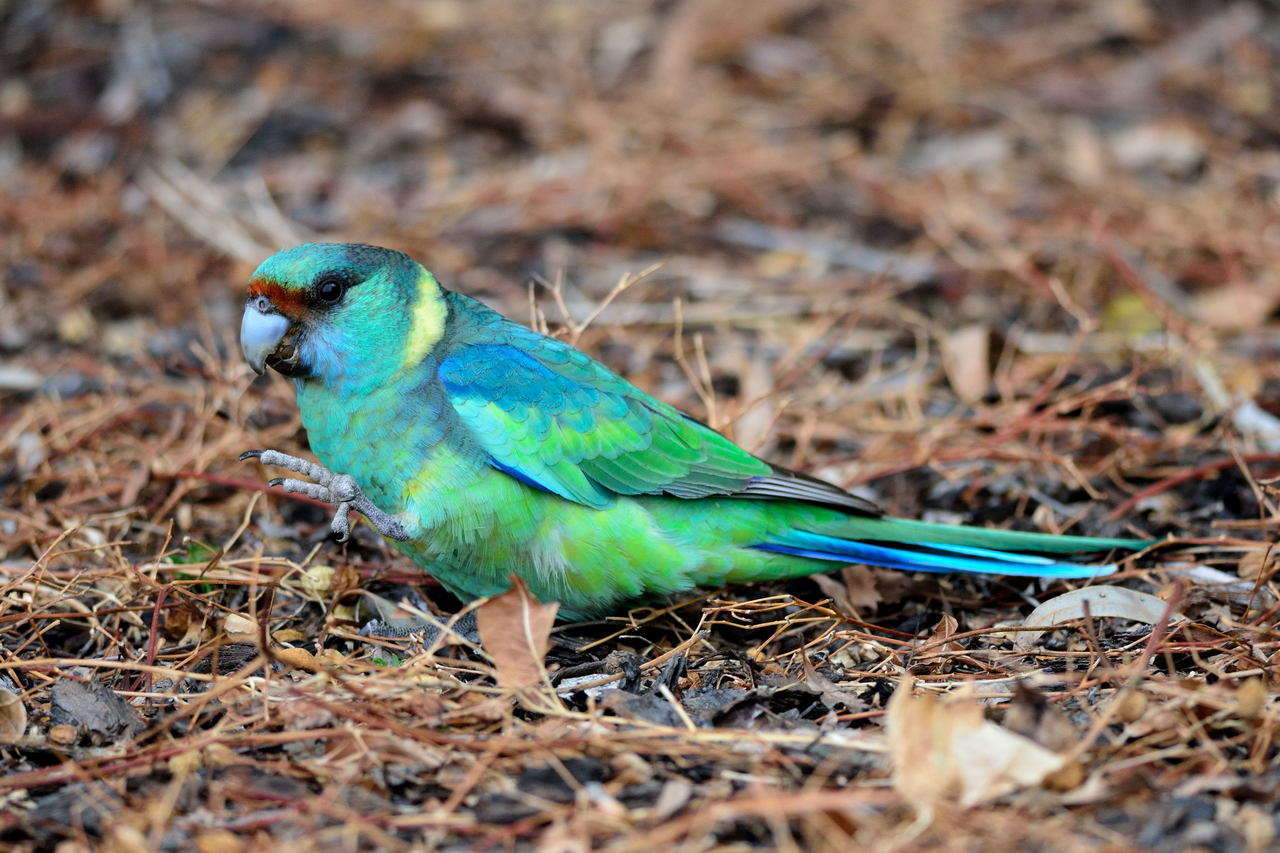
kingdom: Animalia
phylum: Chordata
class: Aves
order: Psittaciformes
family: Psittacidae
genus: Barnardius
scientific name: Barnardius zonarius
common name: Australian ringneck
